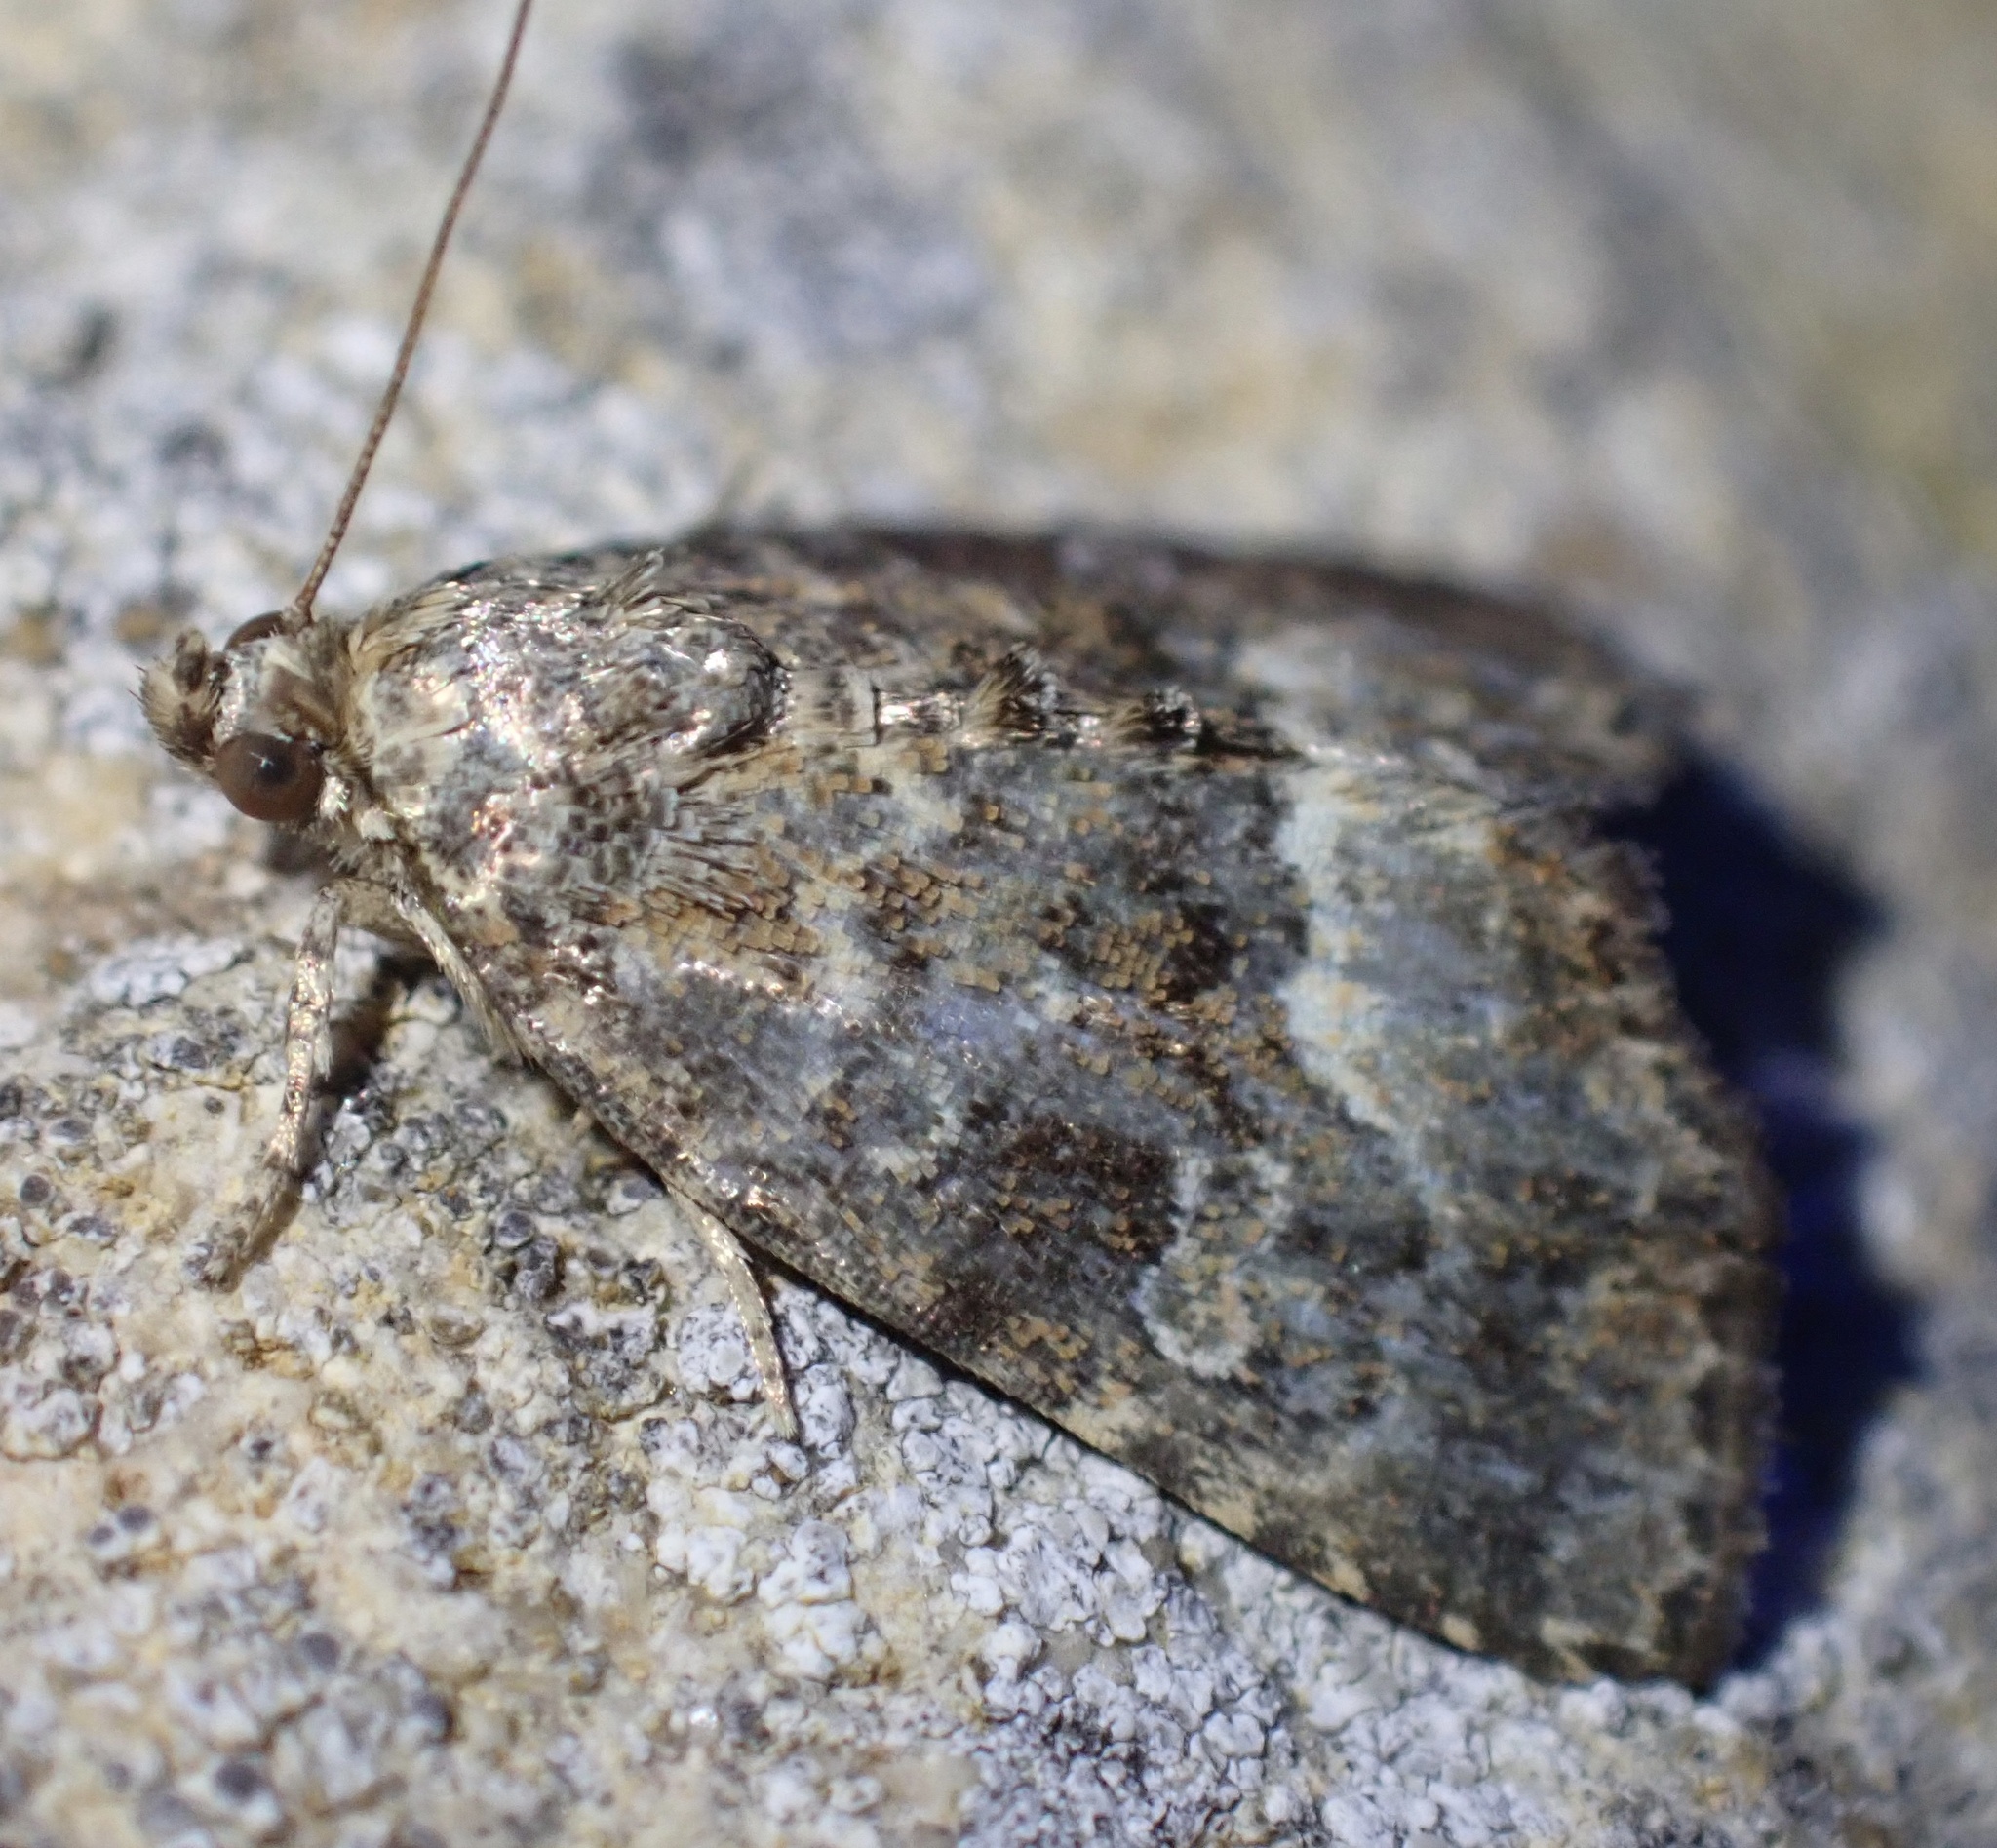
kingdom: Animalia
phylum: Arthropoda
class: Insecta
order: Lepidoptera
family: Noctuidae
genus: Deltote
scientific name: Deltote pygarga
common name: Marbled white spot
